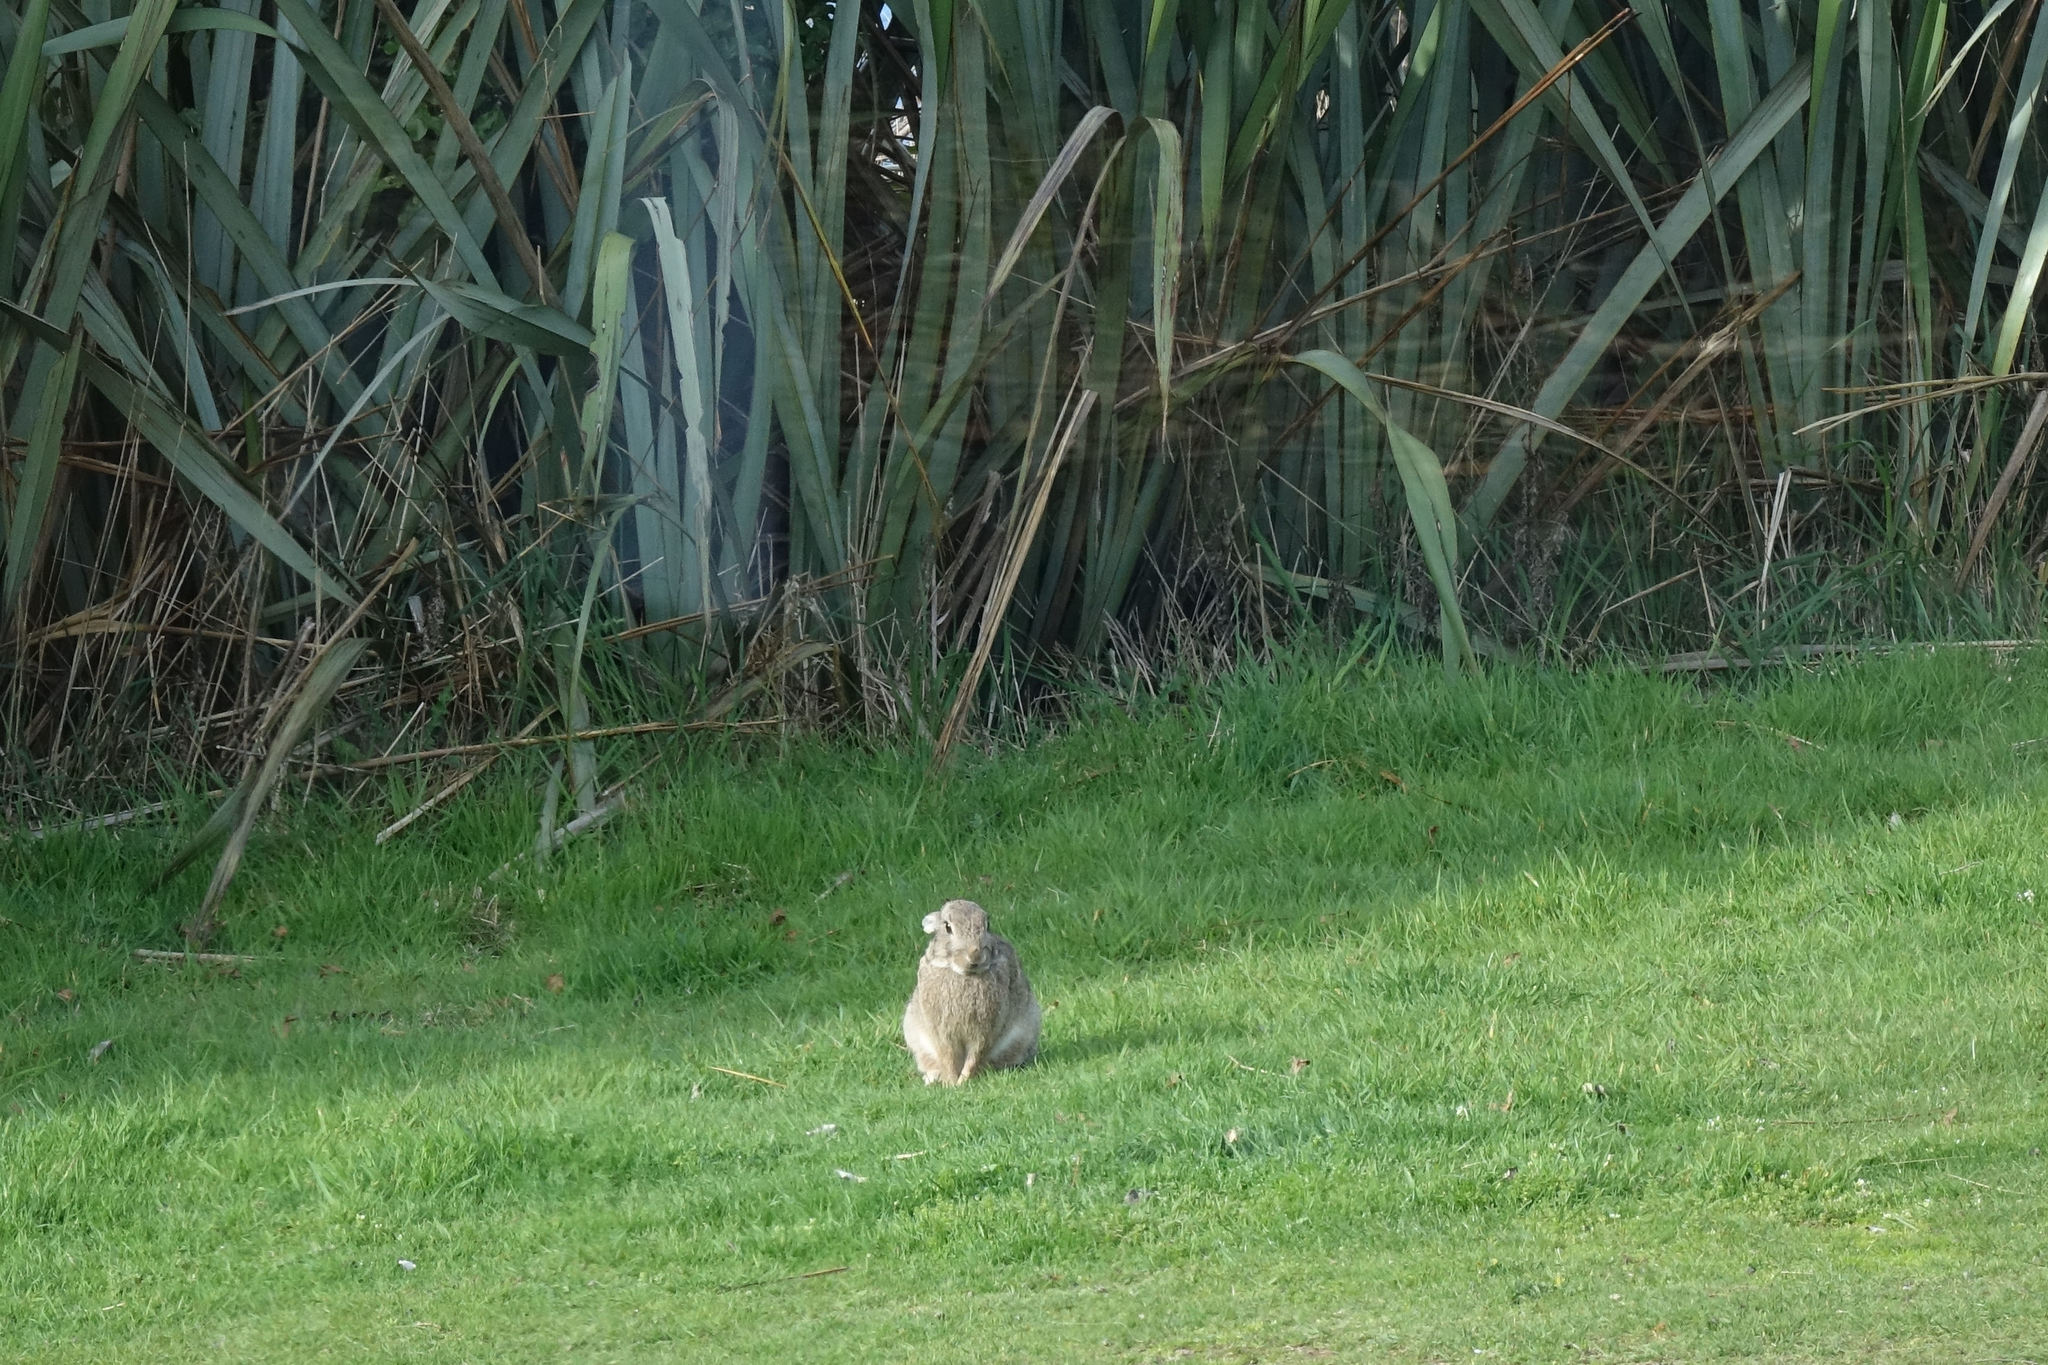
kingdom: Animalia
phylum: Chordata
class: Mammalia
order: Lagomorpha
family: Leporidae
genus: Oryctolagus
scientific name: Oryctolagus cuniculus
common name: European rabbit
